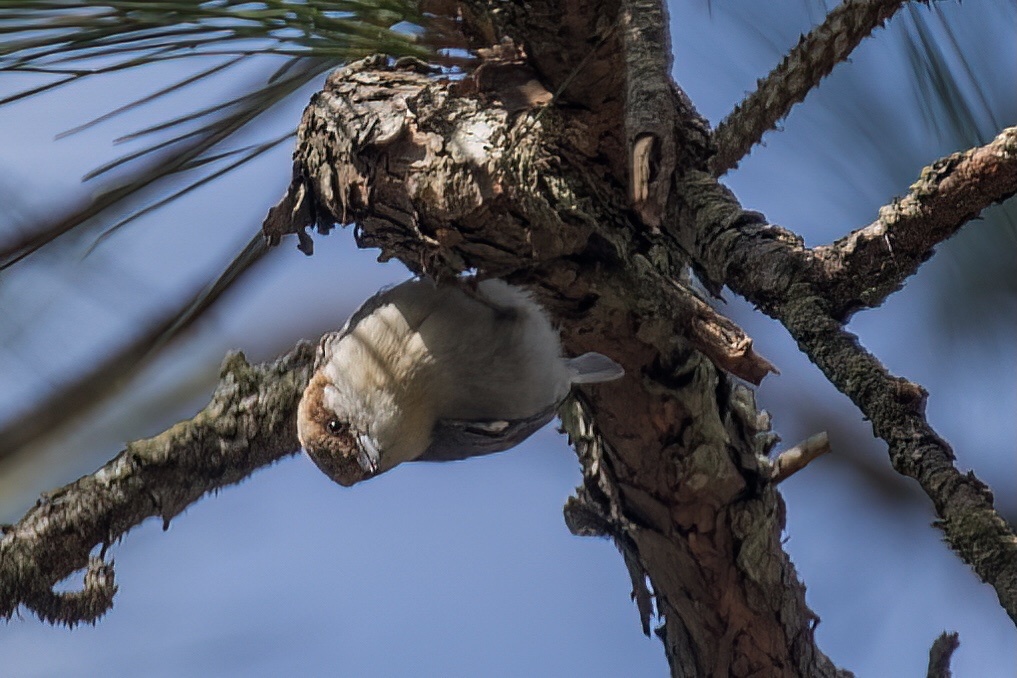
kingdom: Animalia
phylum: Chordata
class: Aves
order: Passeriformes
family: Sittidae
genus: Sitta
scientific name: Sitta pusilla
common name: Brown-headed nuthatch
